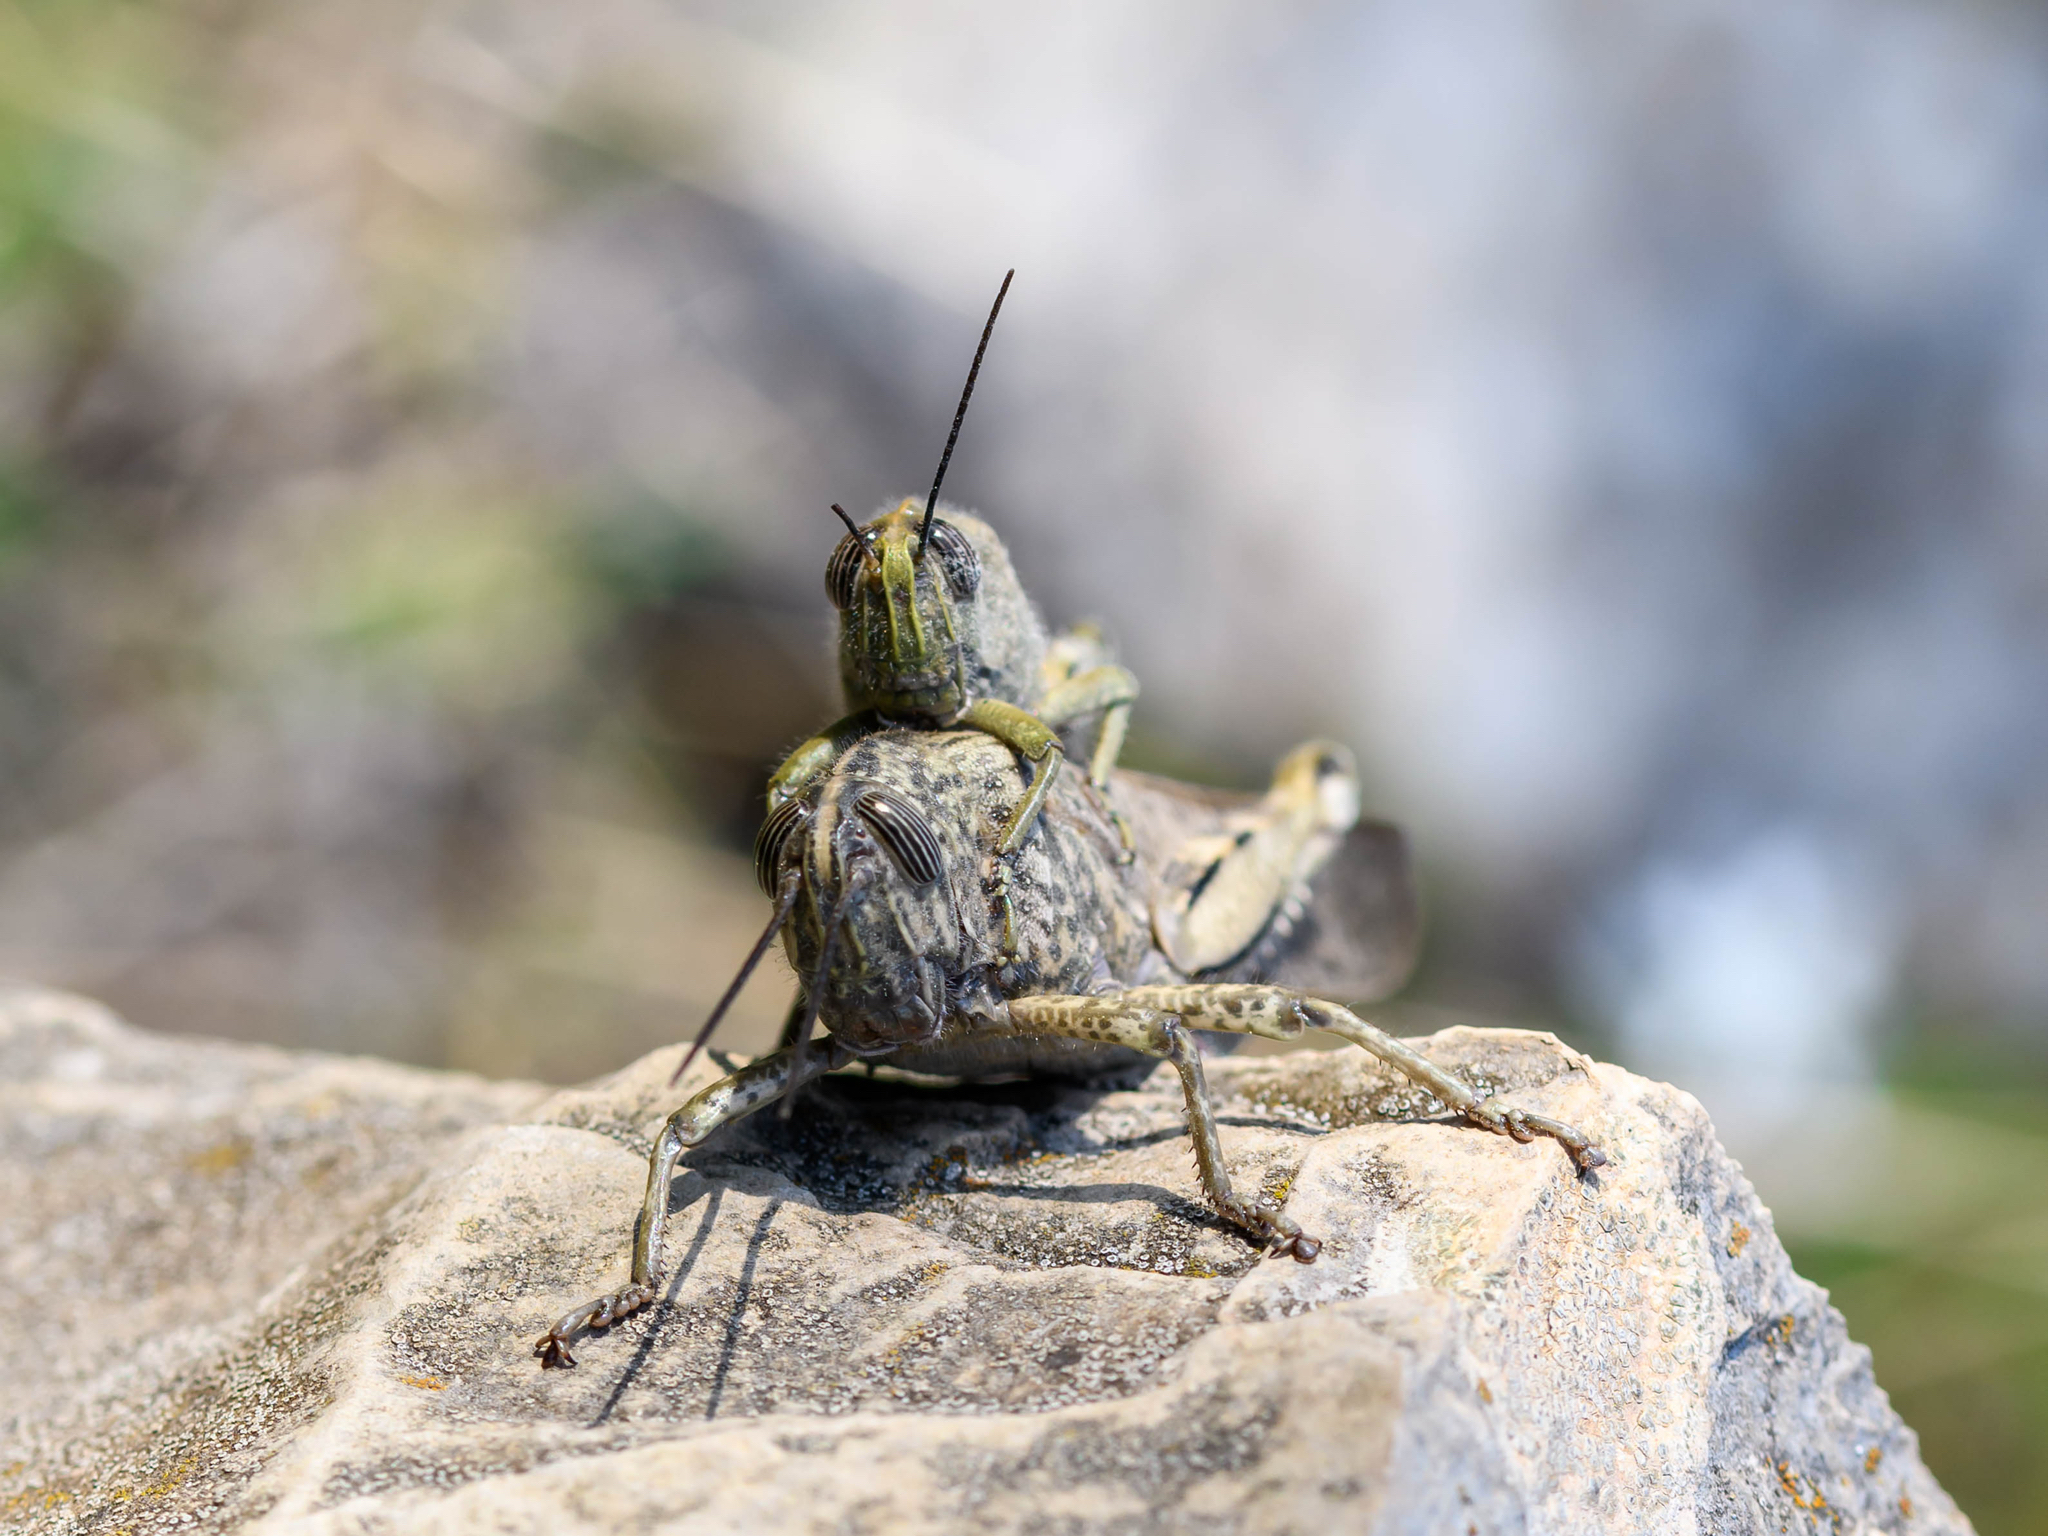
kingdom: Animalia
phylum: Arthropoda
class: Insecta
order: Orthoptera
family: Acrididae
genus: Anacridium
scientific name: Anacridium aegyptium
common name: Egyptian grasshopper
